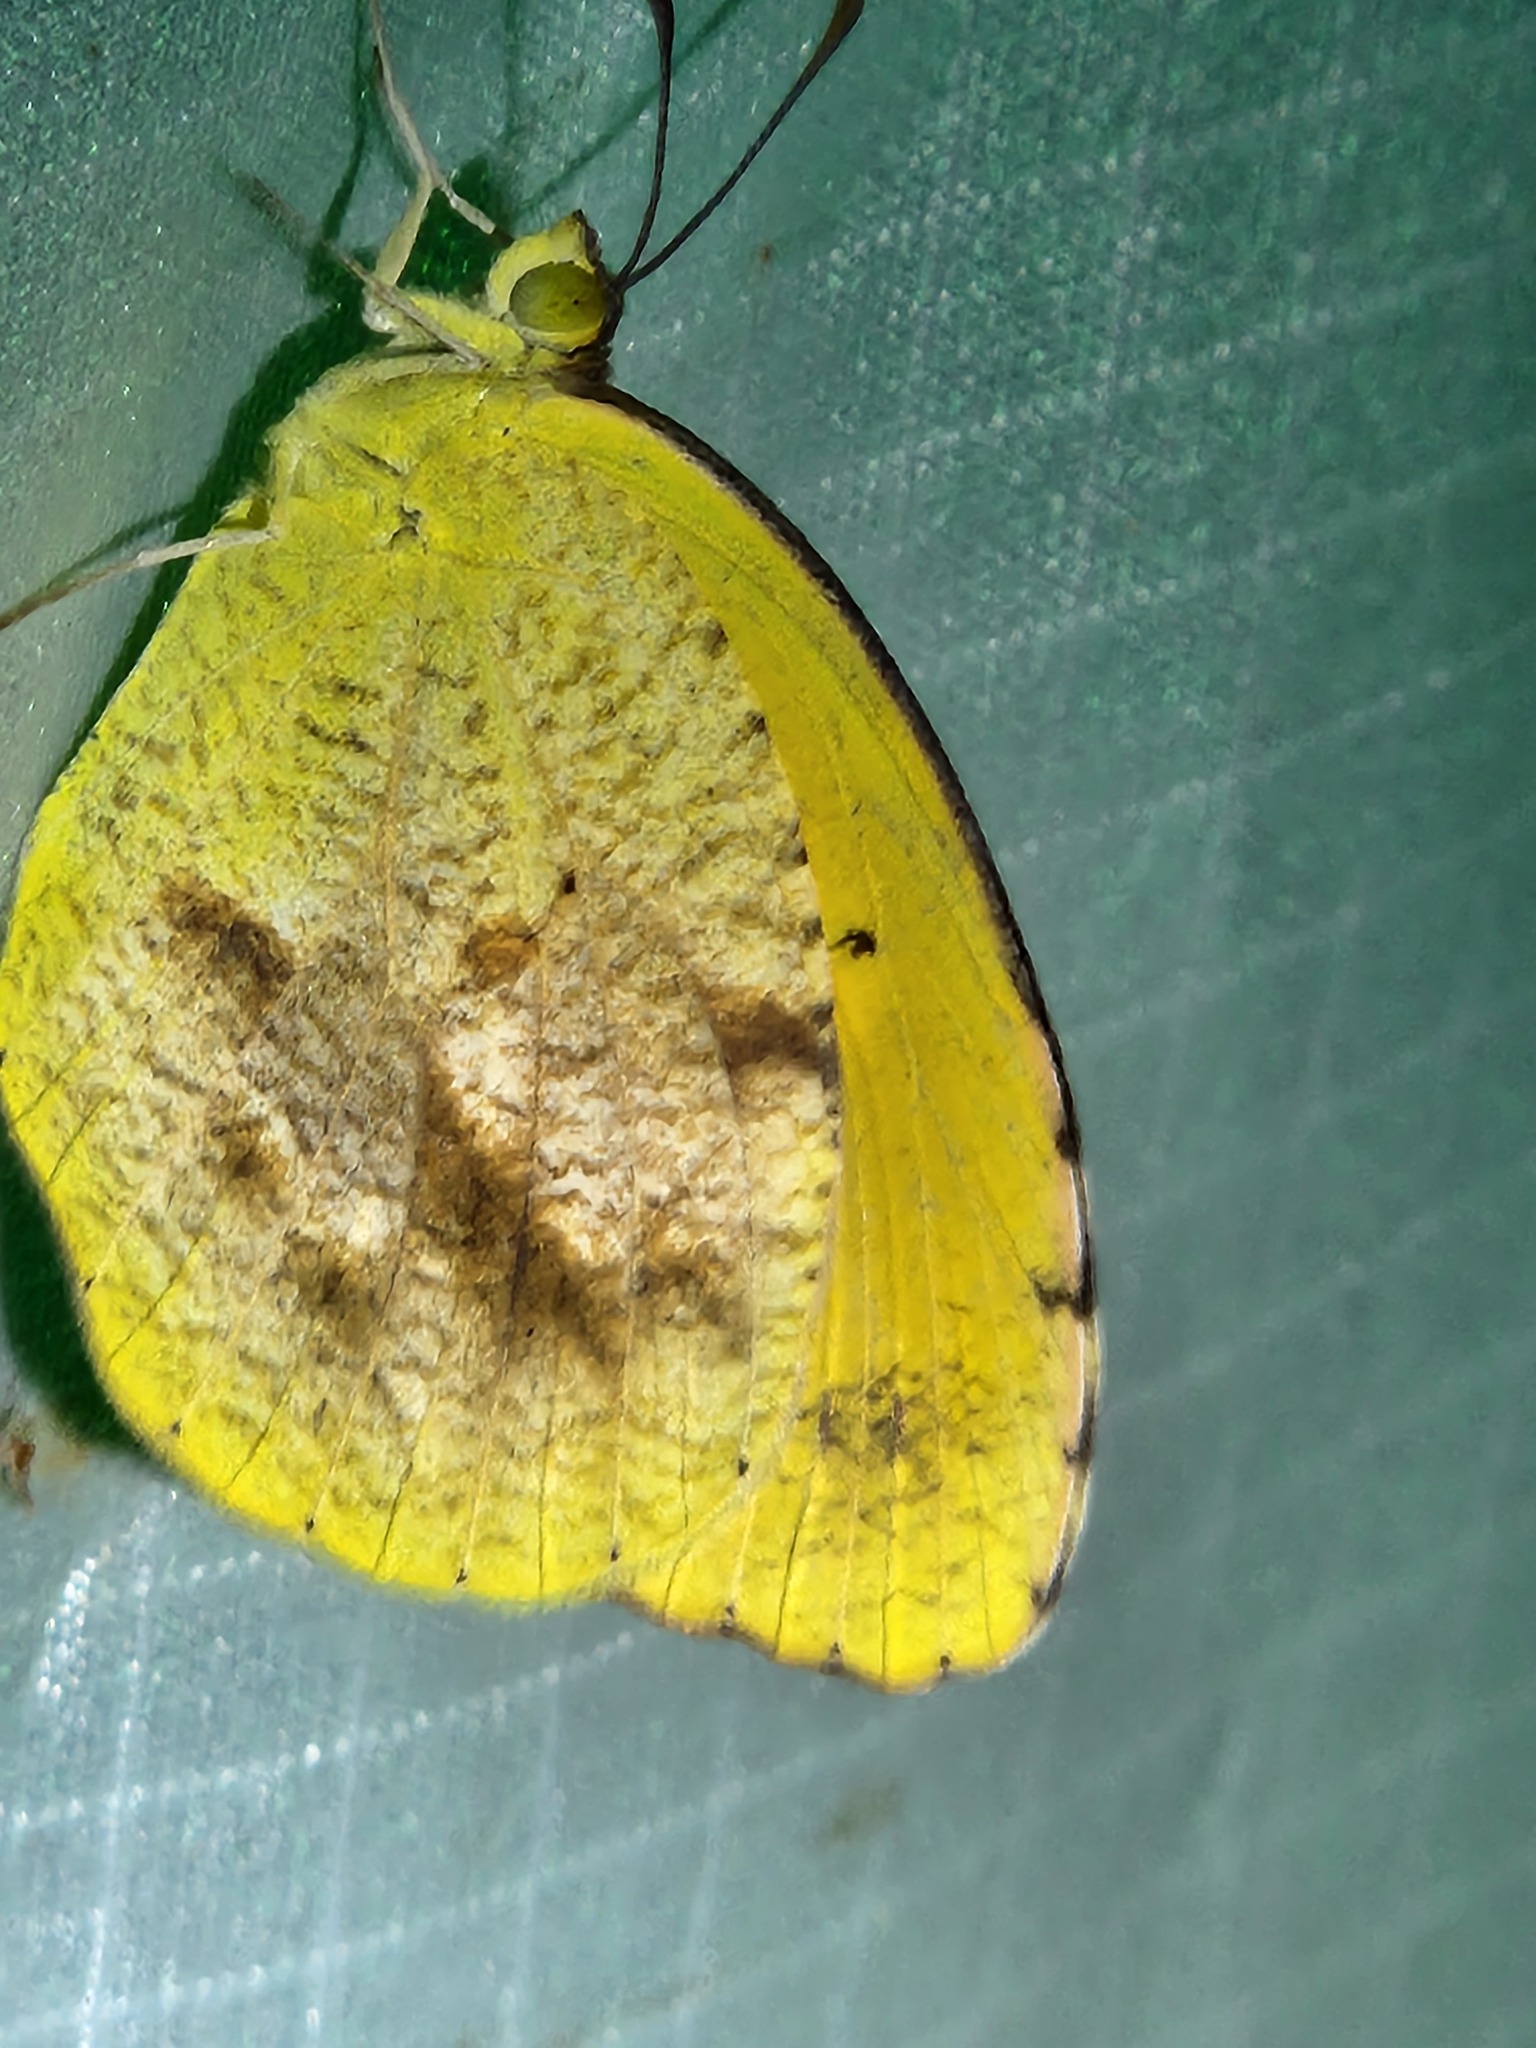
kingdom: Animalia
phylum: Arthropoda
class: Insecta
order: Lepidoptera
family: Pieridae
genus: Abaeis
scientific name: Abaeis nicippe
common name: Sleepy orange
